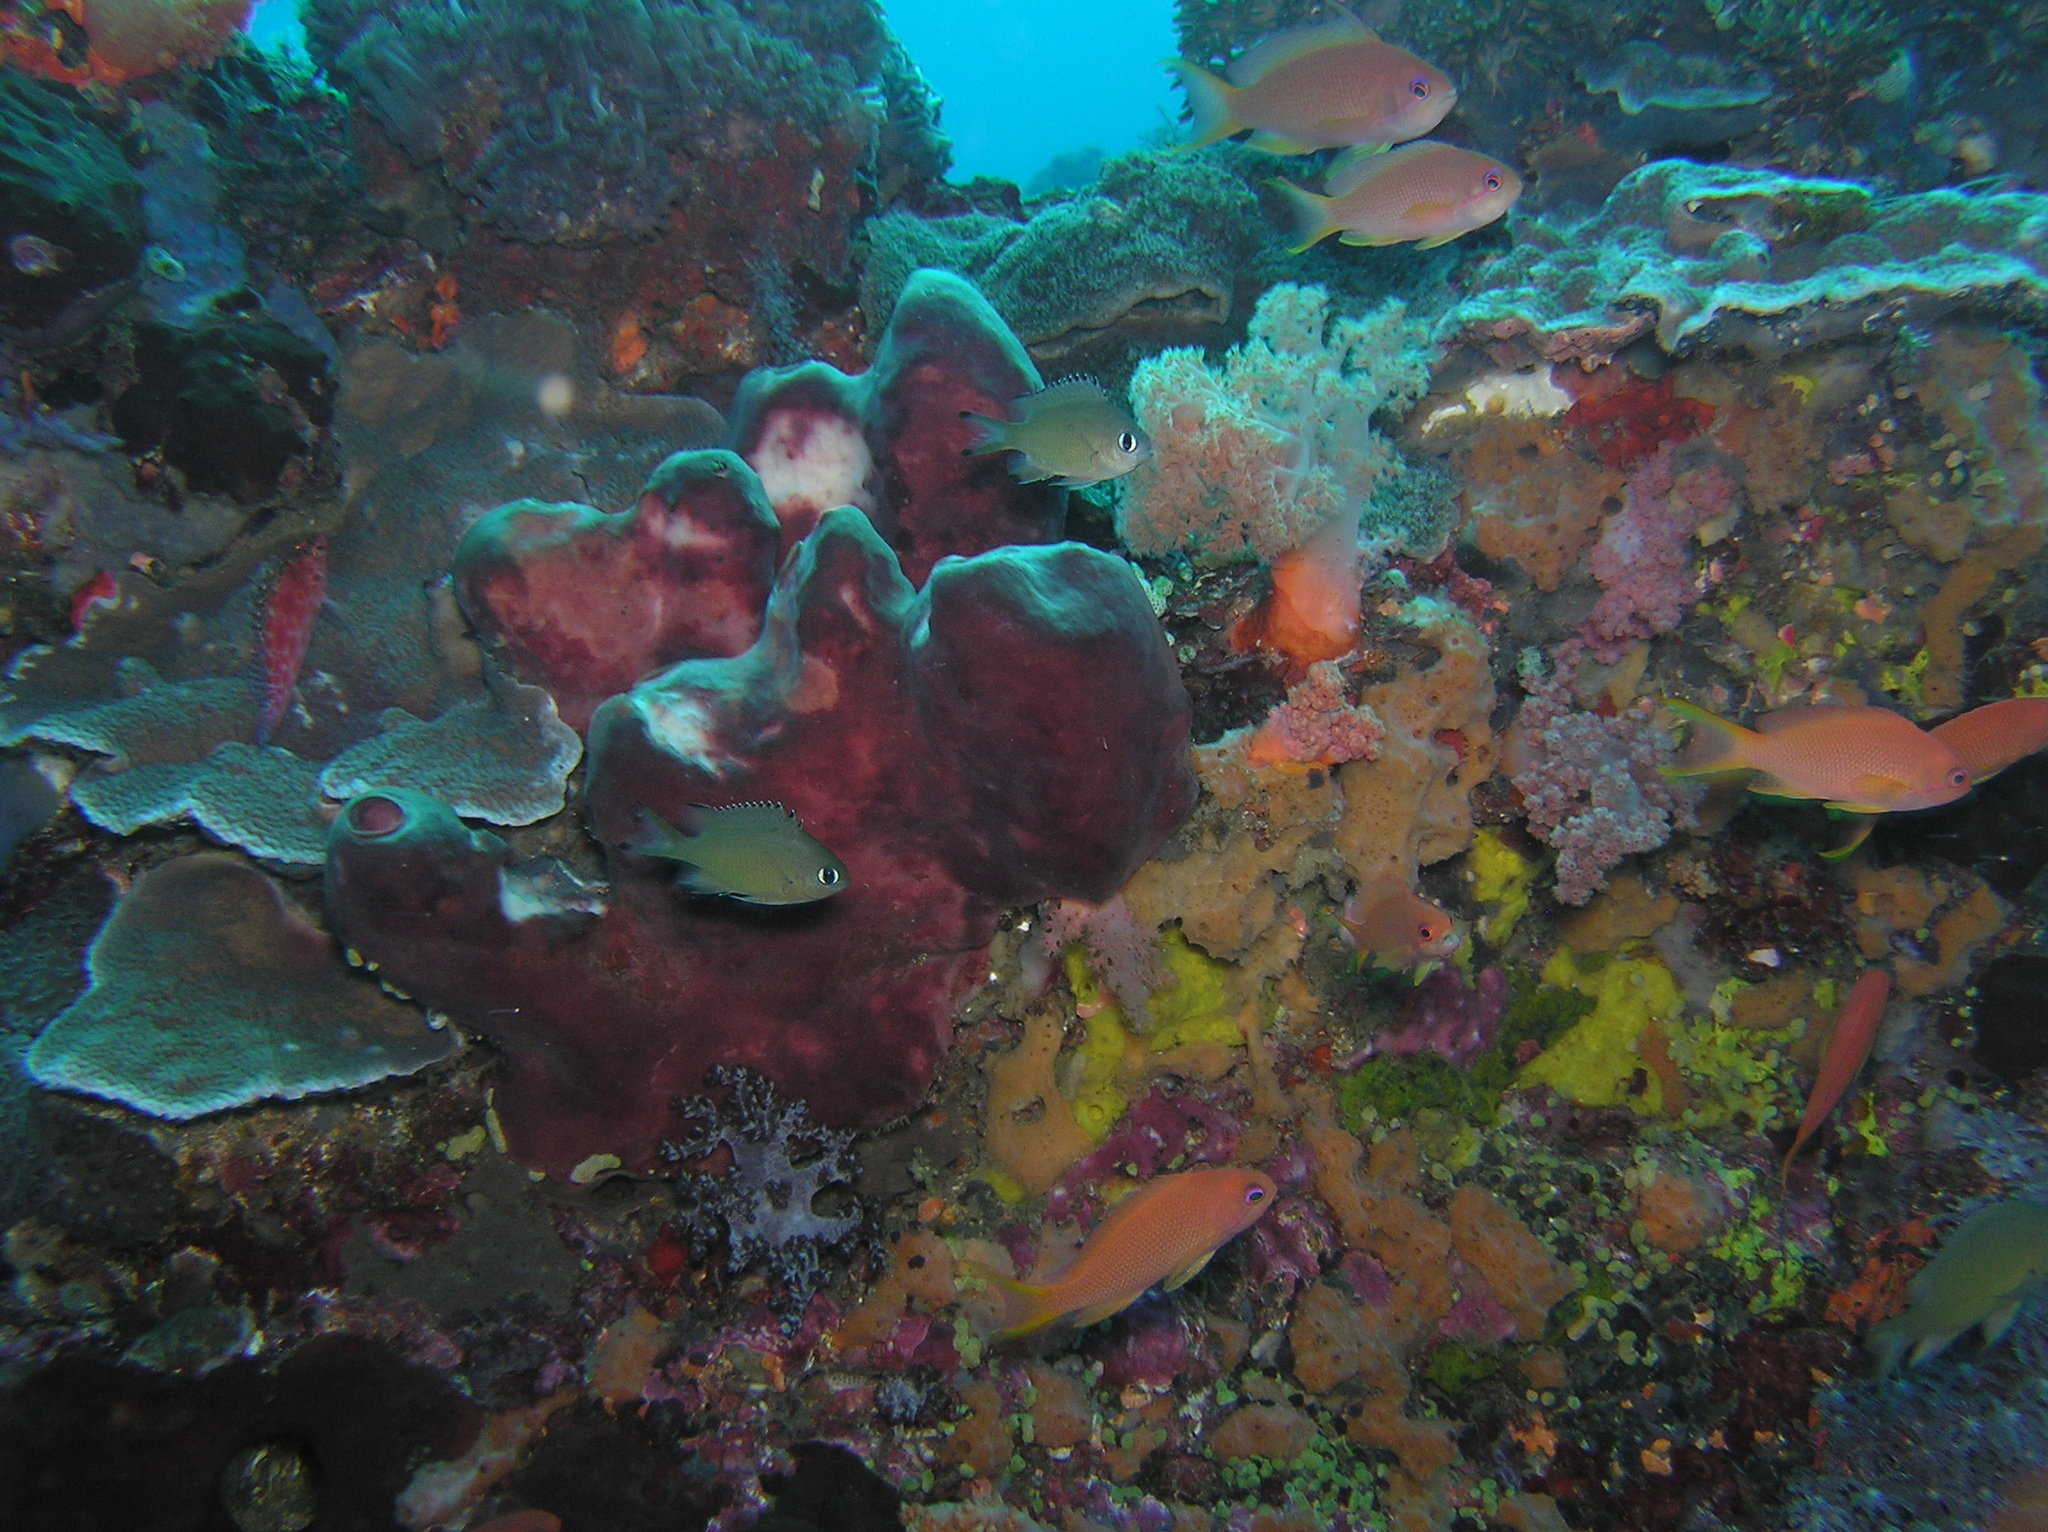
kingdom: Animalia
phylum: Chordata
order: Perciformes
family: Pomacentridae
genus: Chromis
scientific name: Chromis lepidolepis
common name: Scaly chromis
